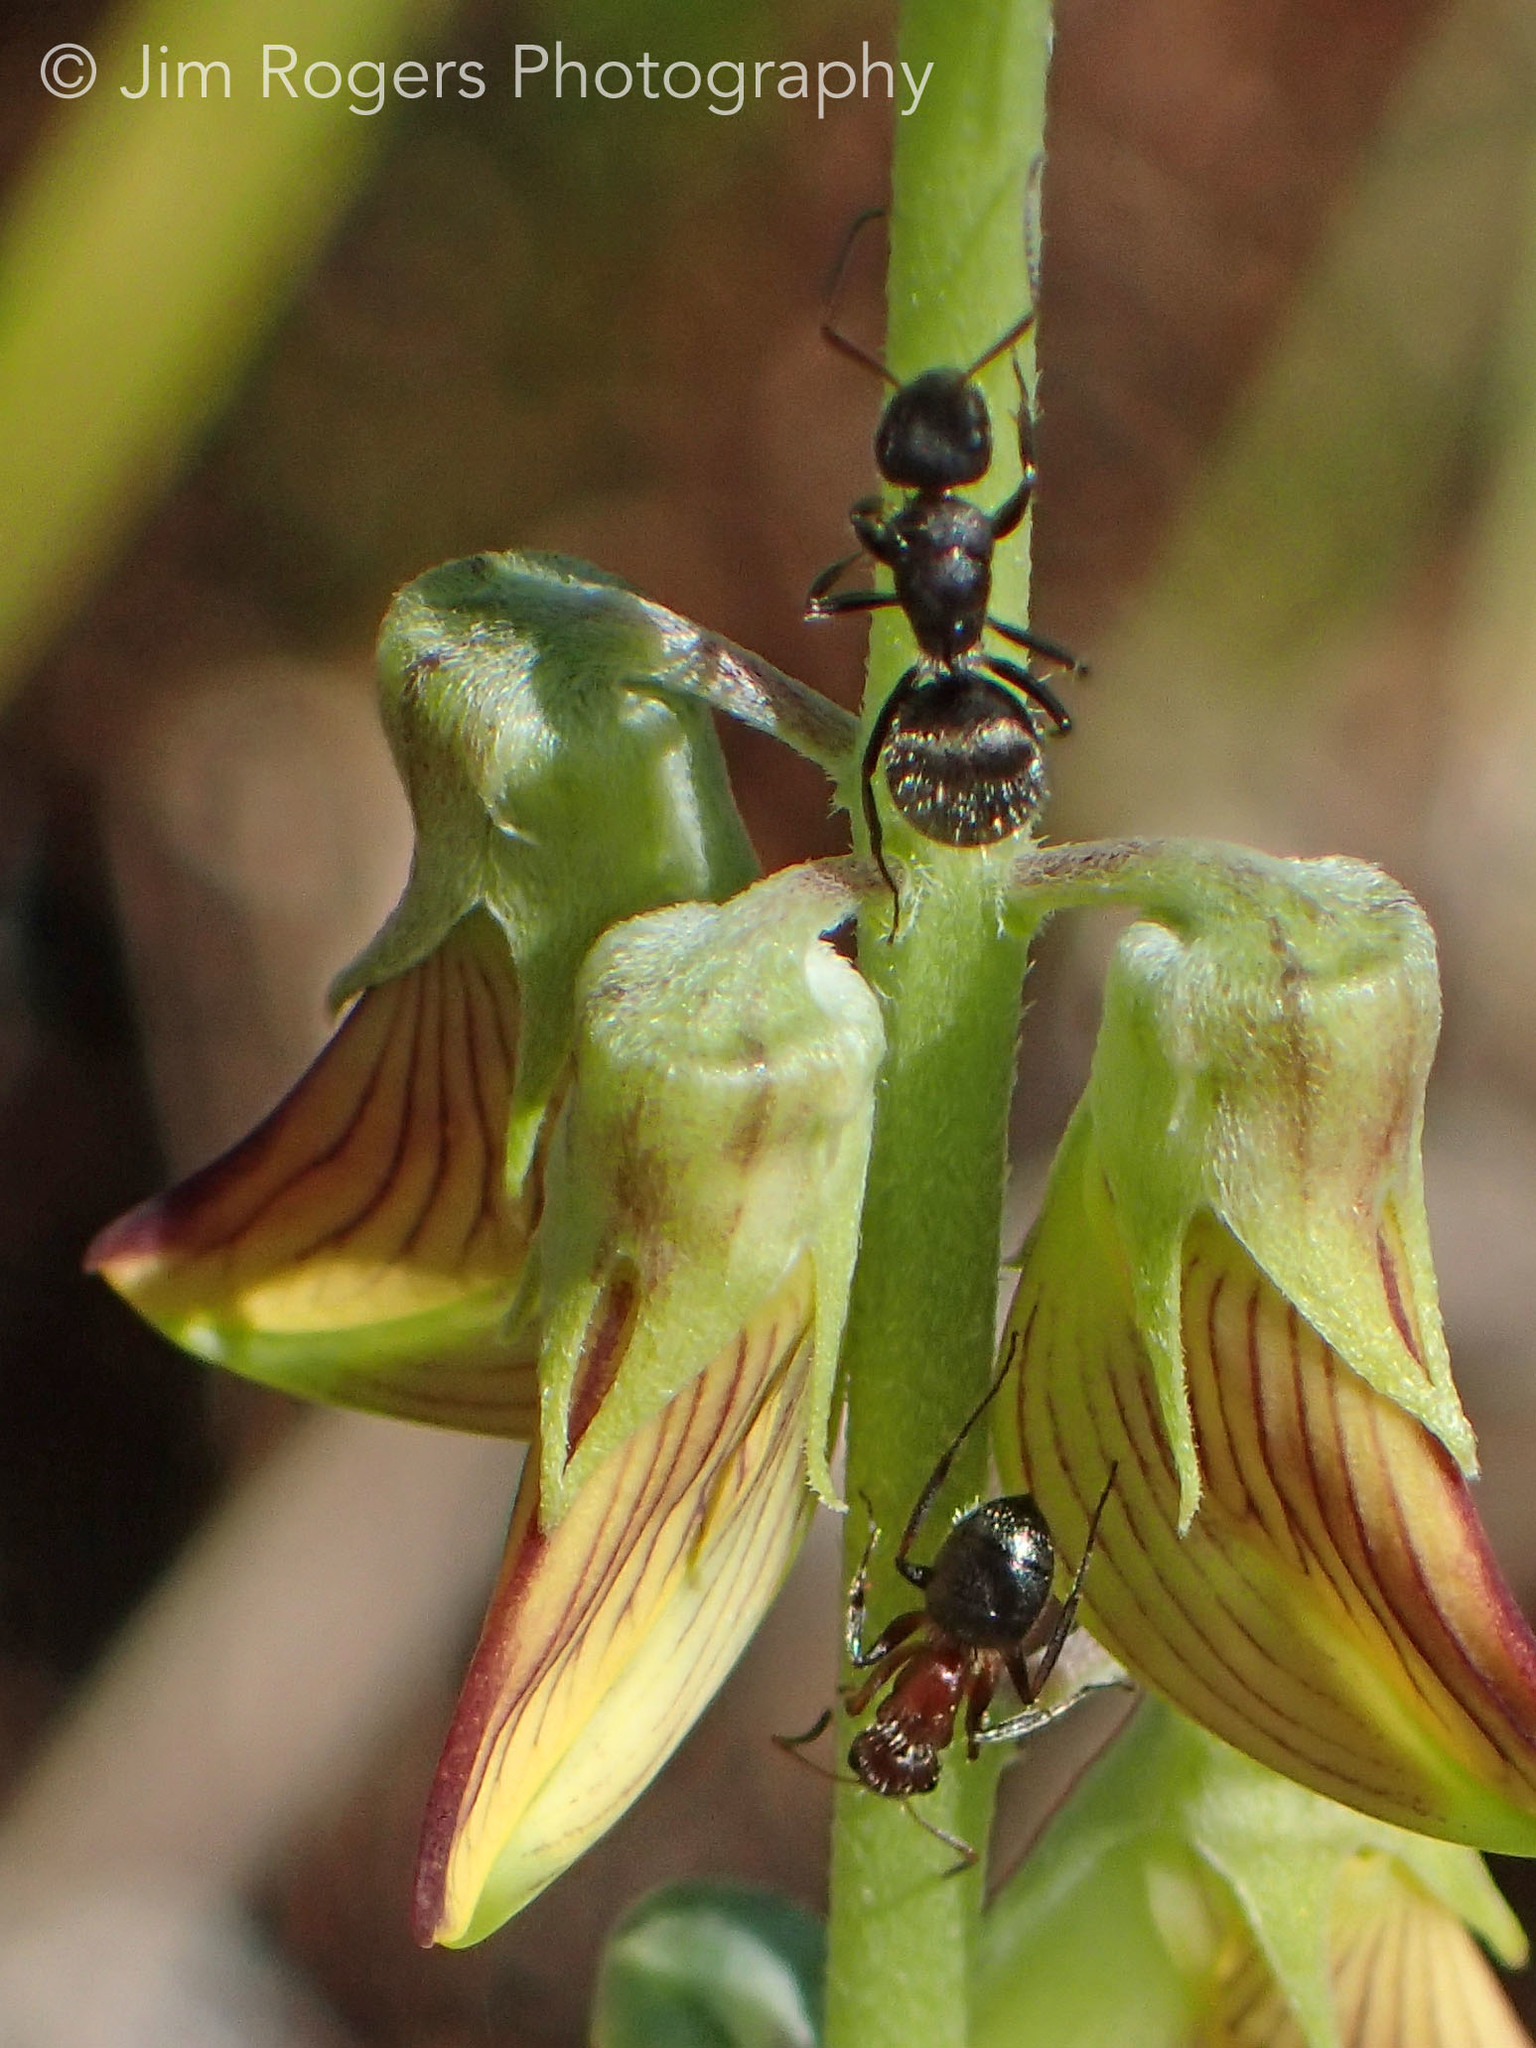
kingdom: Animalia
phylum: Arthropoda
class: Insecta
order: Hymenoptera
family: Formicidae
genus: Camponotus
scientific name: Camponotus planatus
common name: Compact carpenter ant
